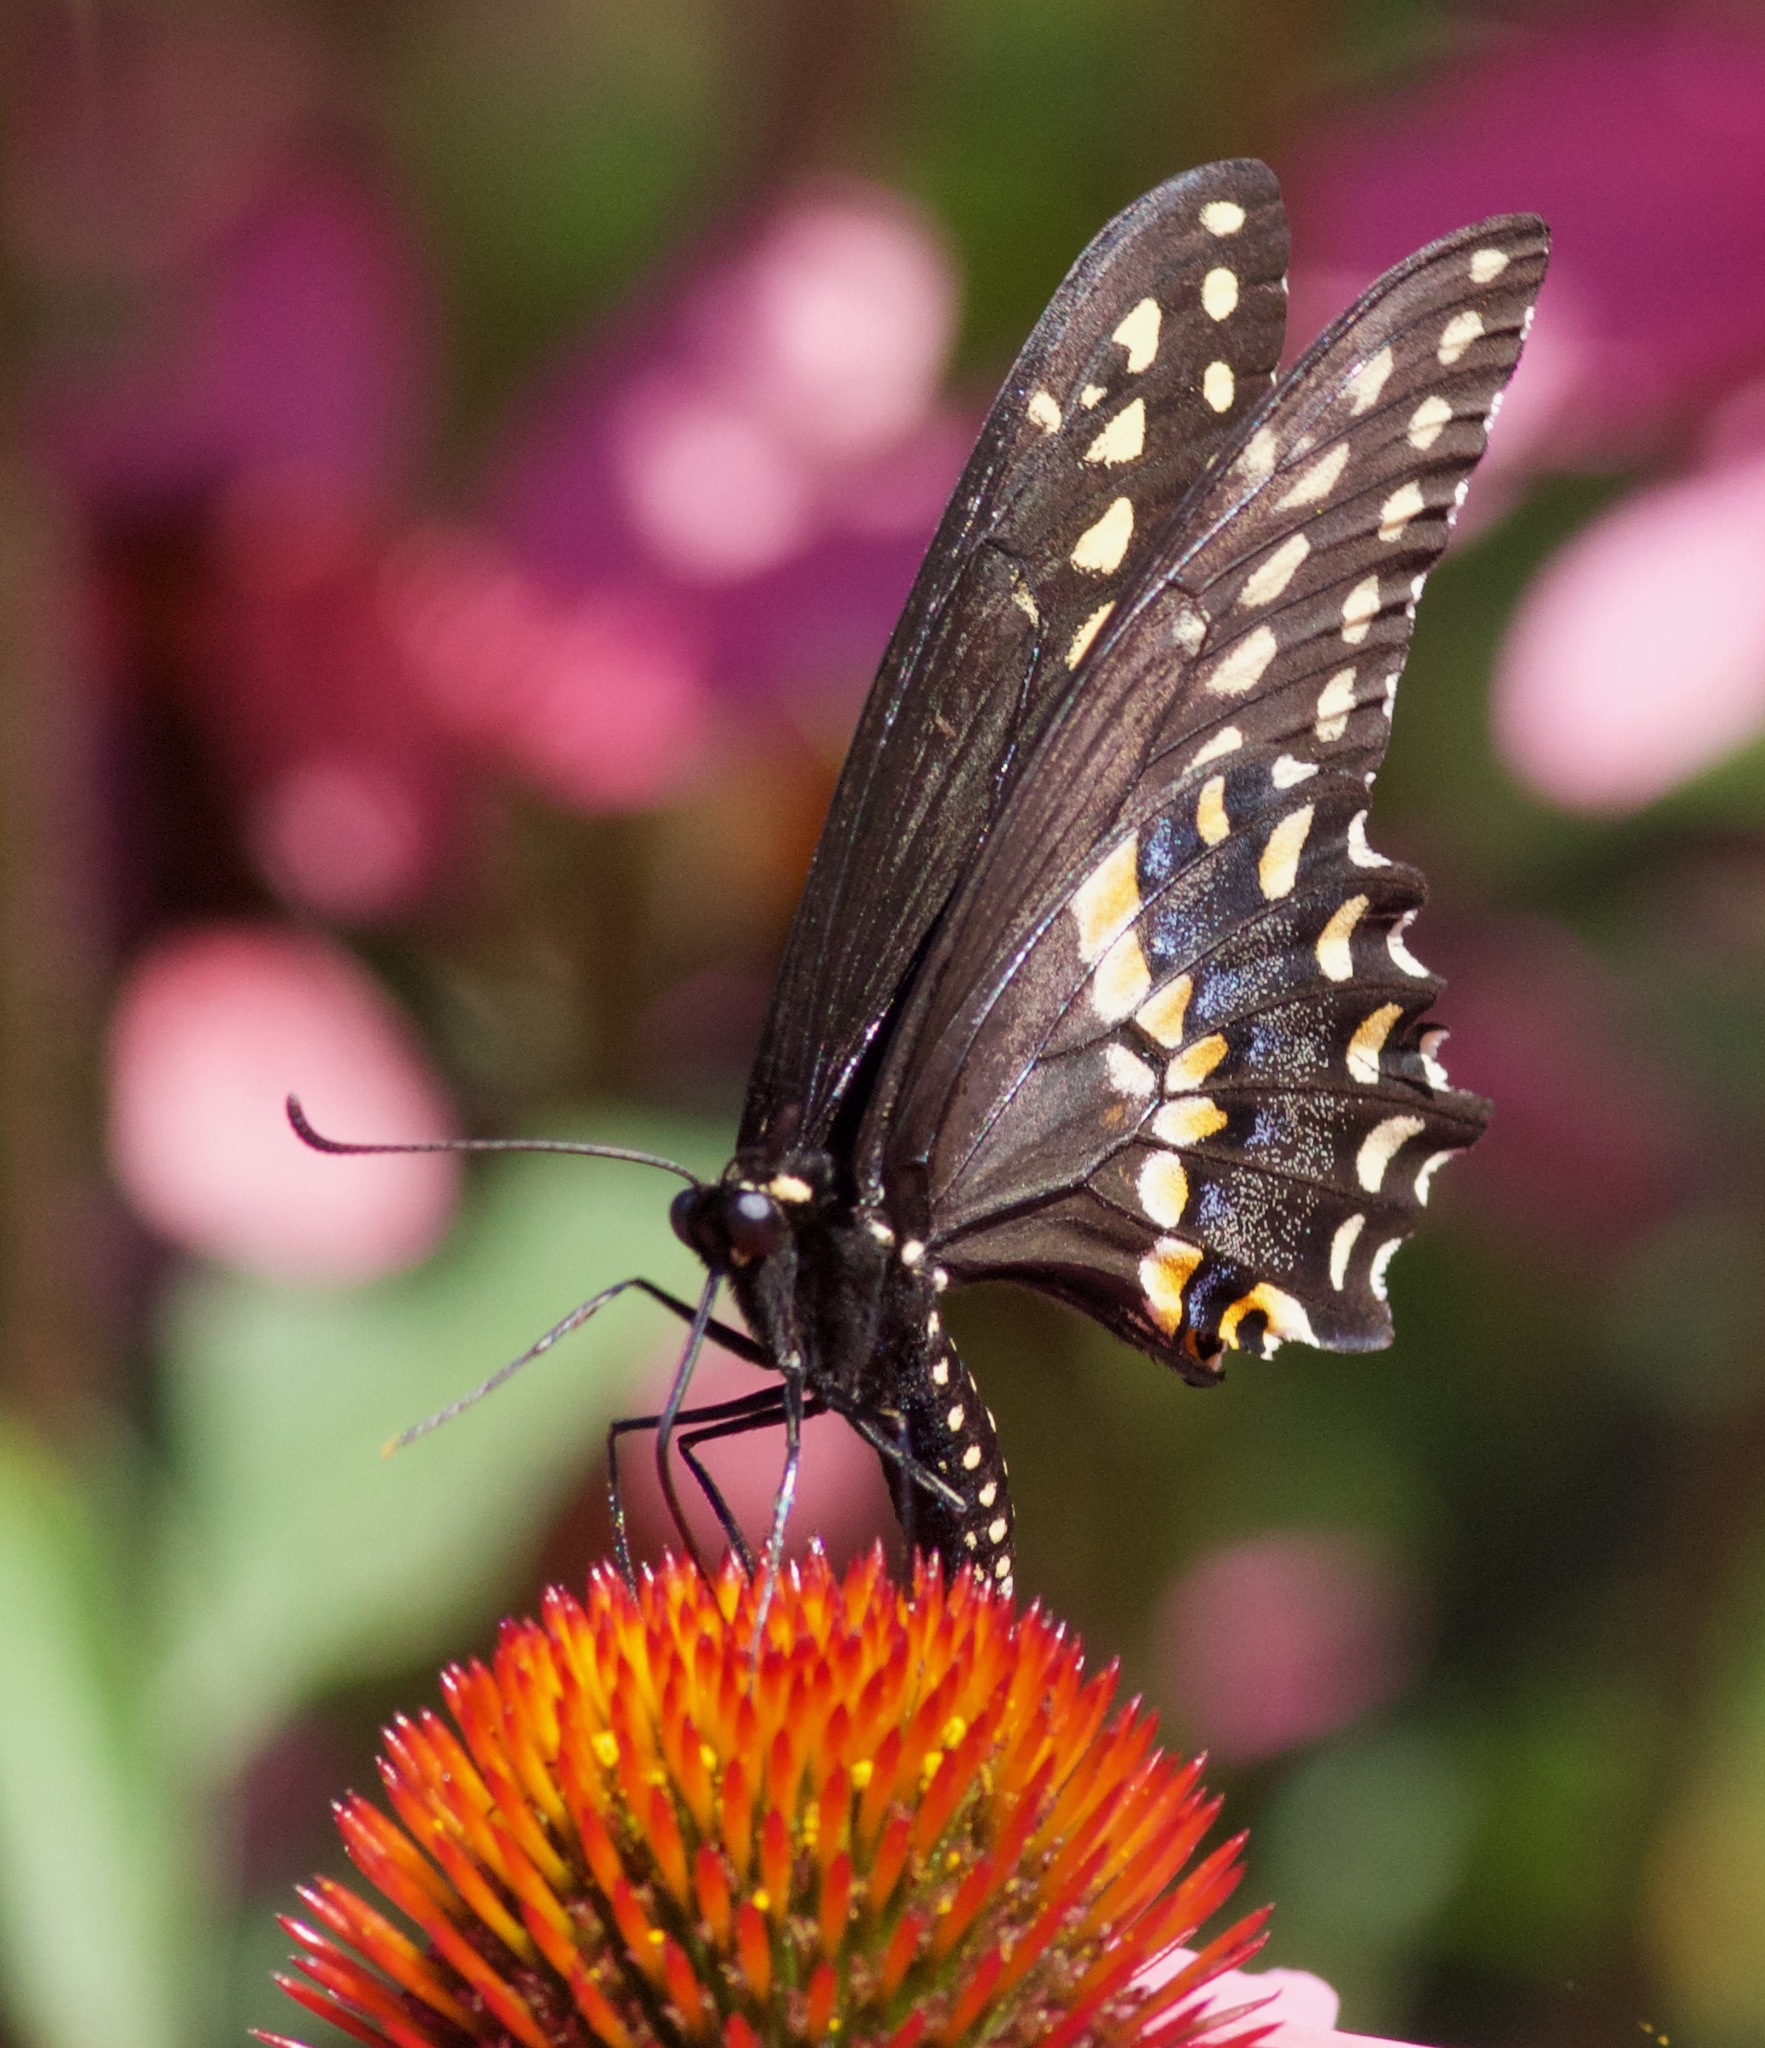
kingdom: Animalia
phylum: Arthropoda
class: Insecta
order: Lepidoptera
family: Papilionidae
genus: Papilio
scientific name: Papilio polyxenes
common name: Black swallowtail
